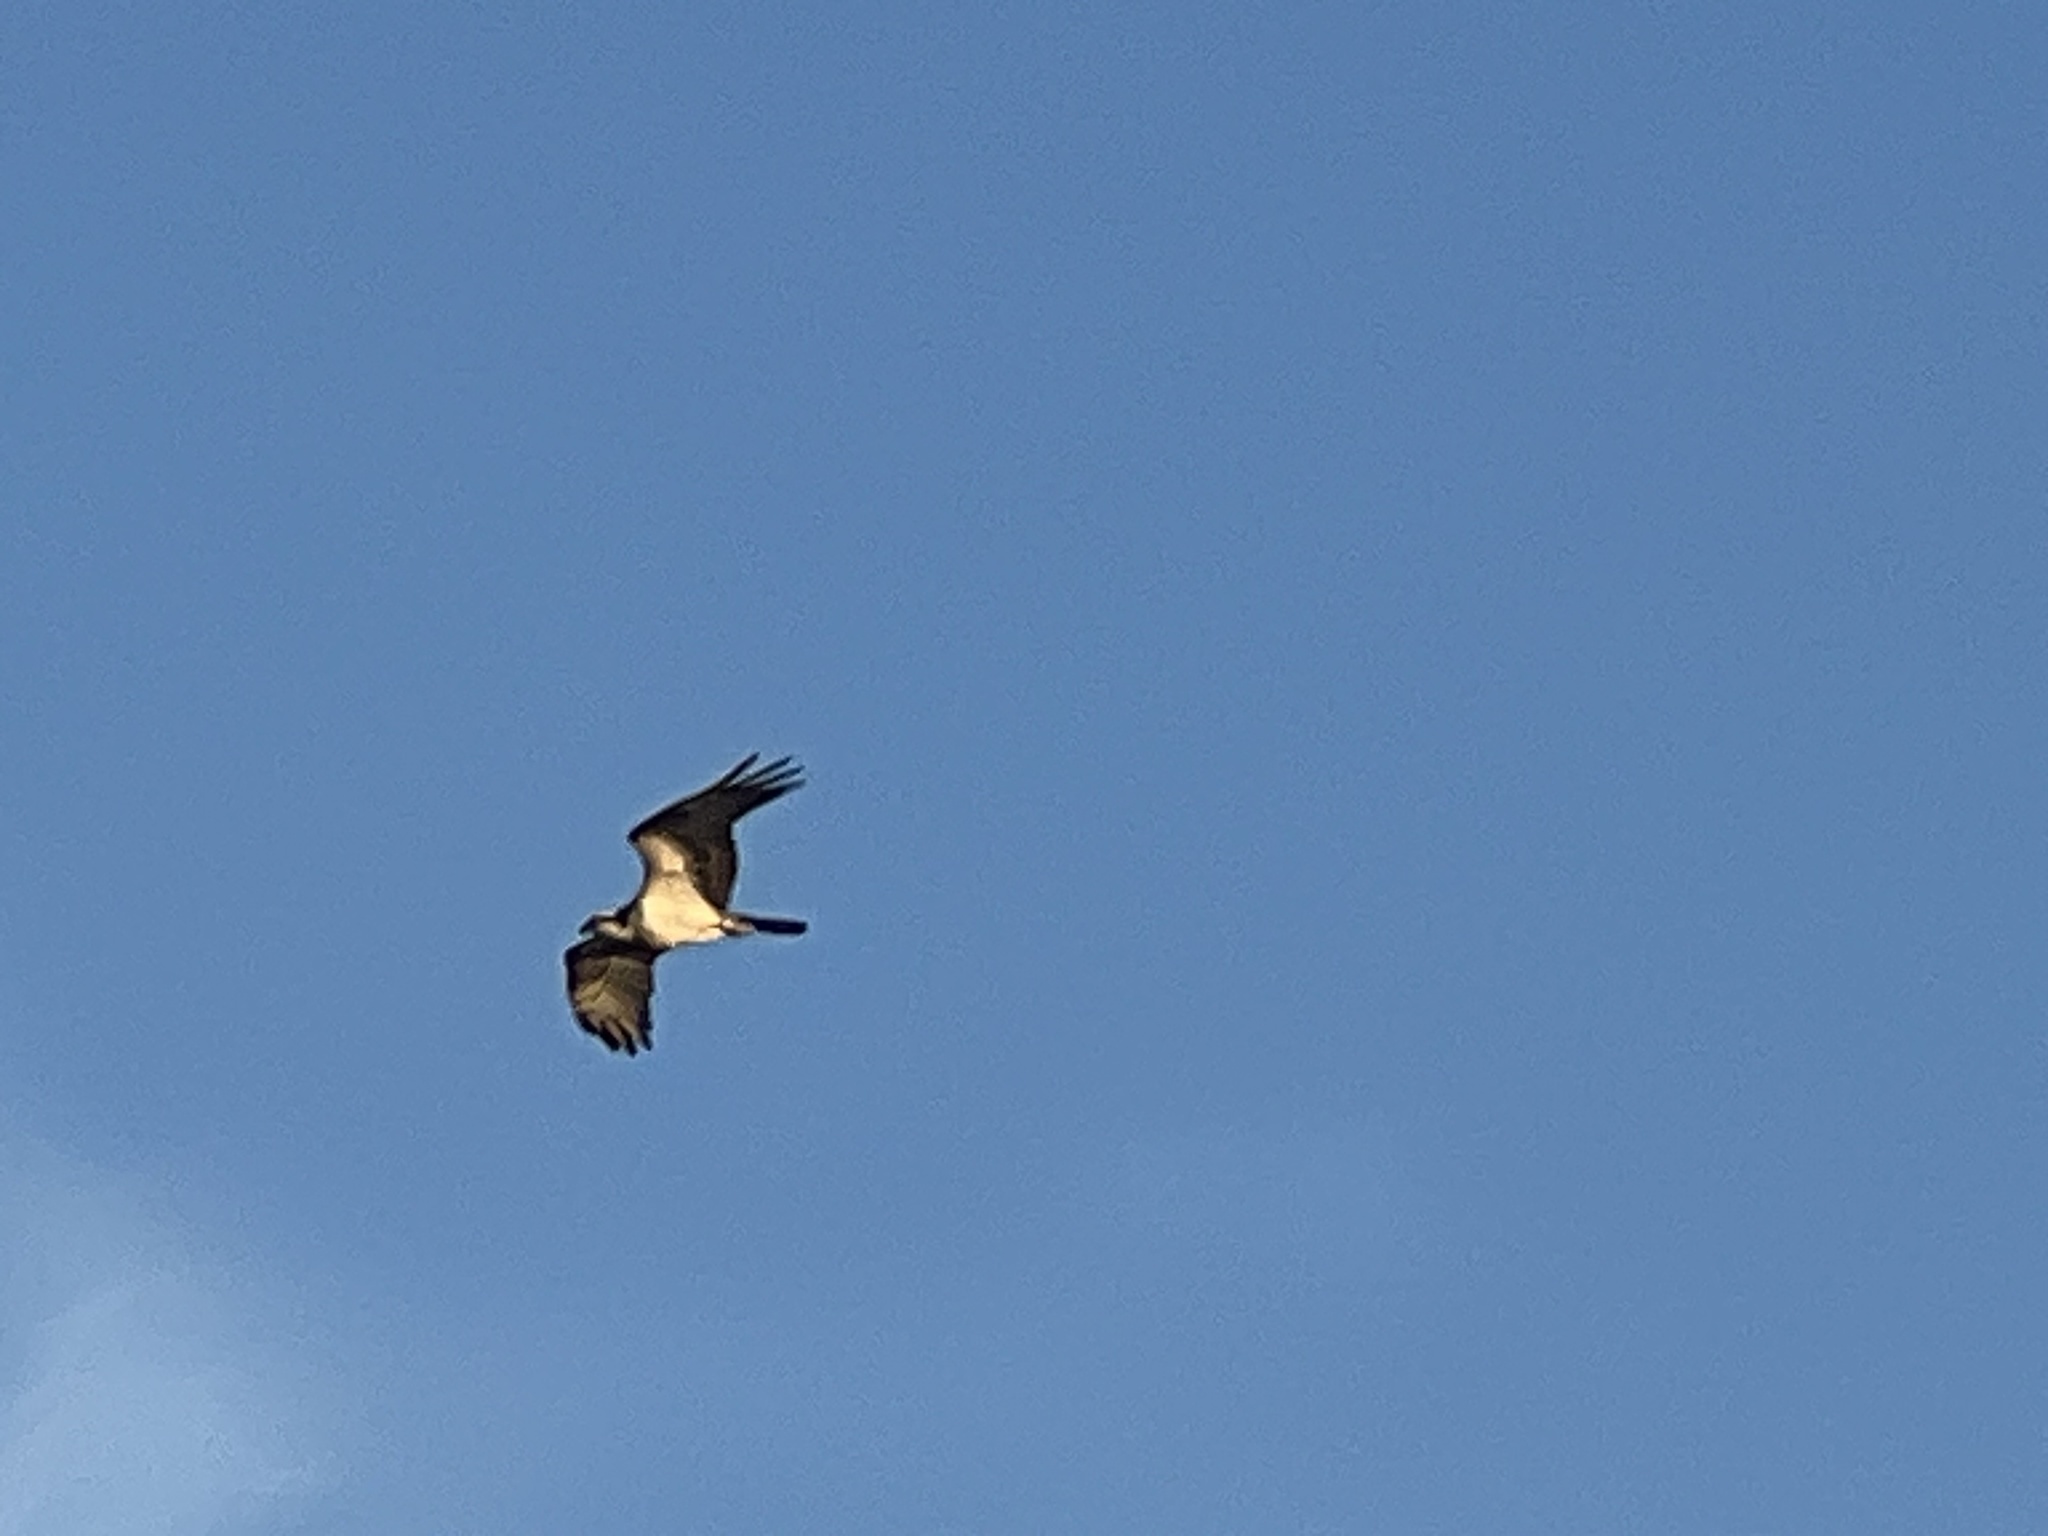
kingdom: Animalia
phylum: Chordata
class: Aves
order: Accipitriformes
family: Pandionidae
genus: Pandion
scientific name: Pandion haliaetus
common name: Osprey
